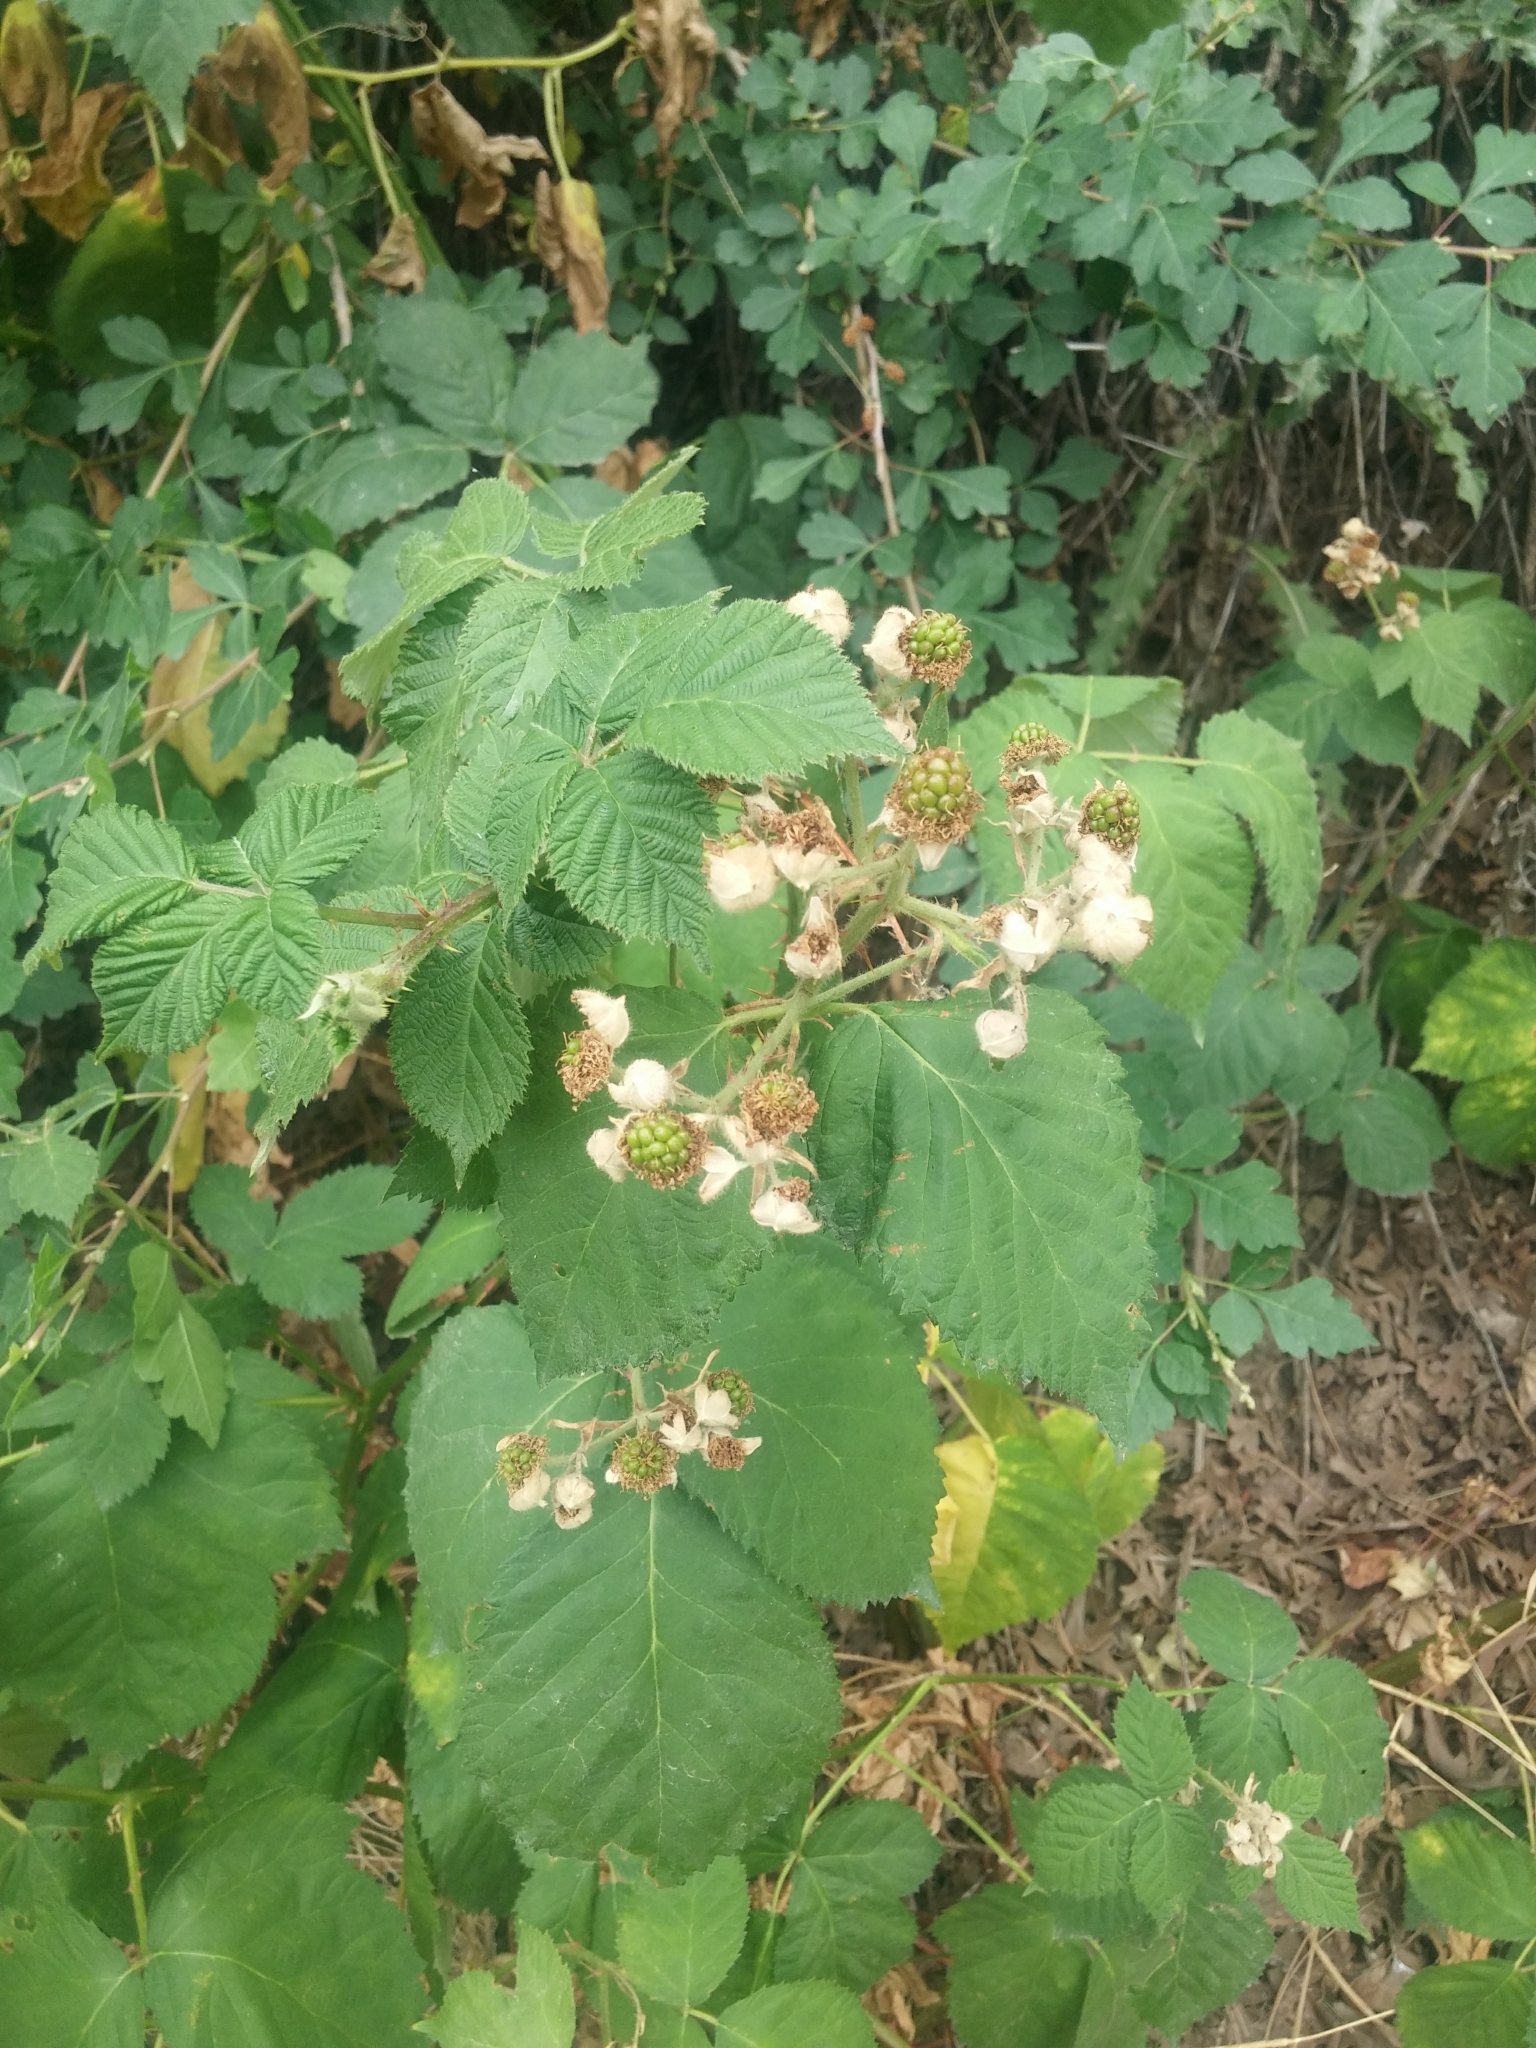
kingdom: Plantae
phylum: Tracheophyta
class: Magnoliopsida
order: Rosales
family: Rosaceae
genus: Rubus
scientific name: Rubus bifrons
